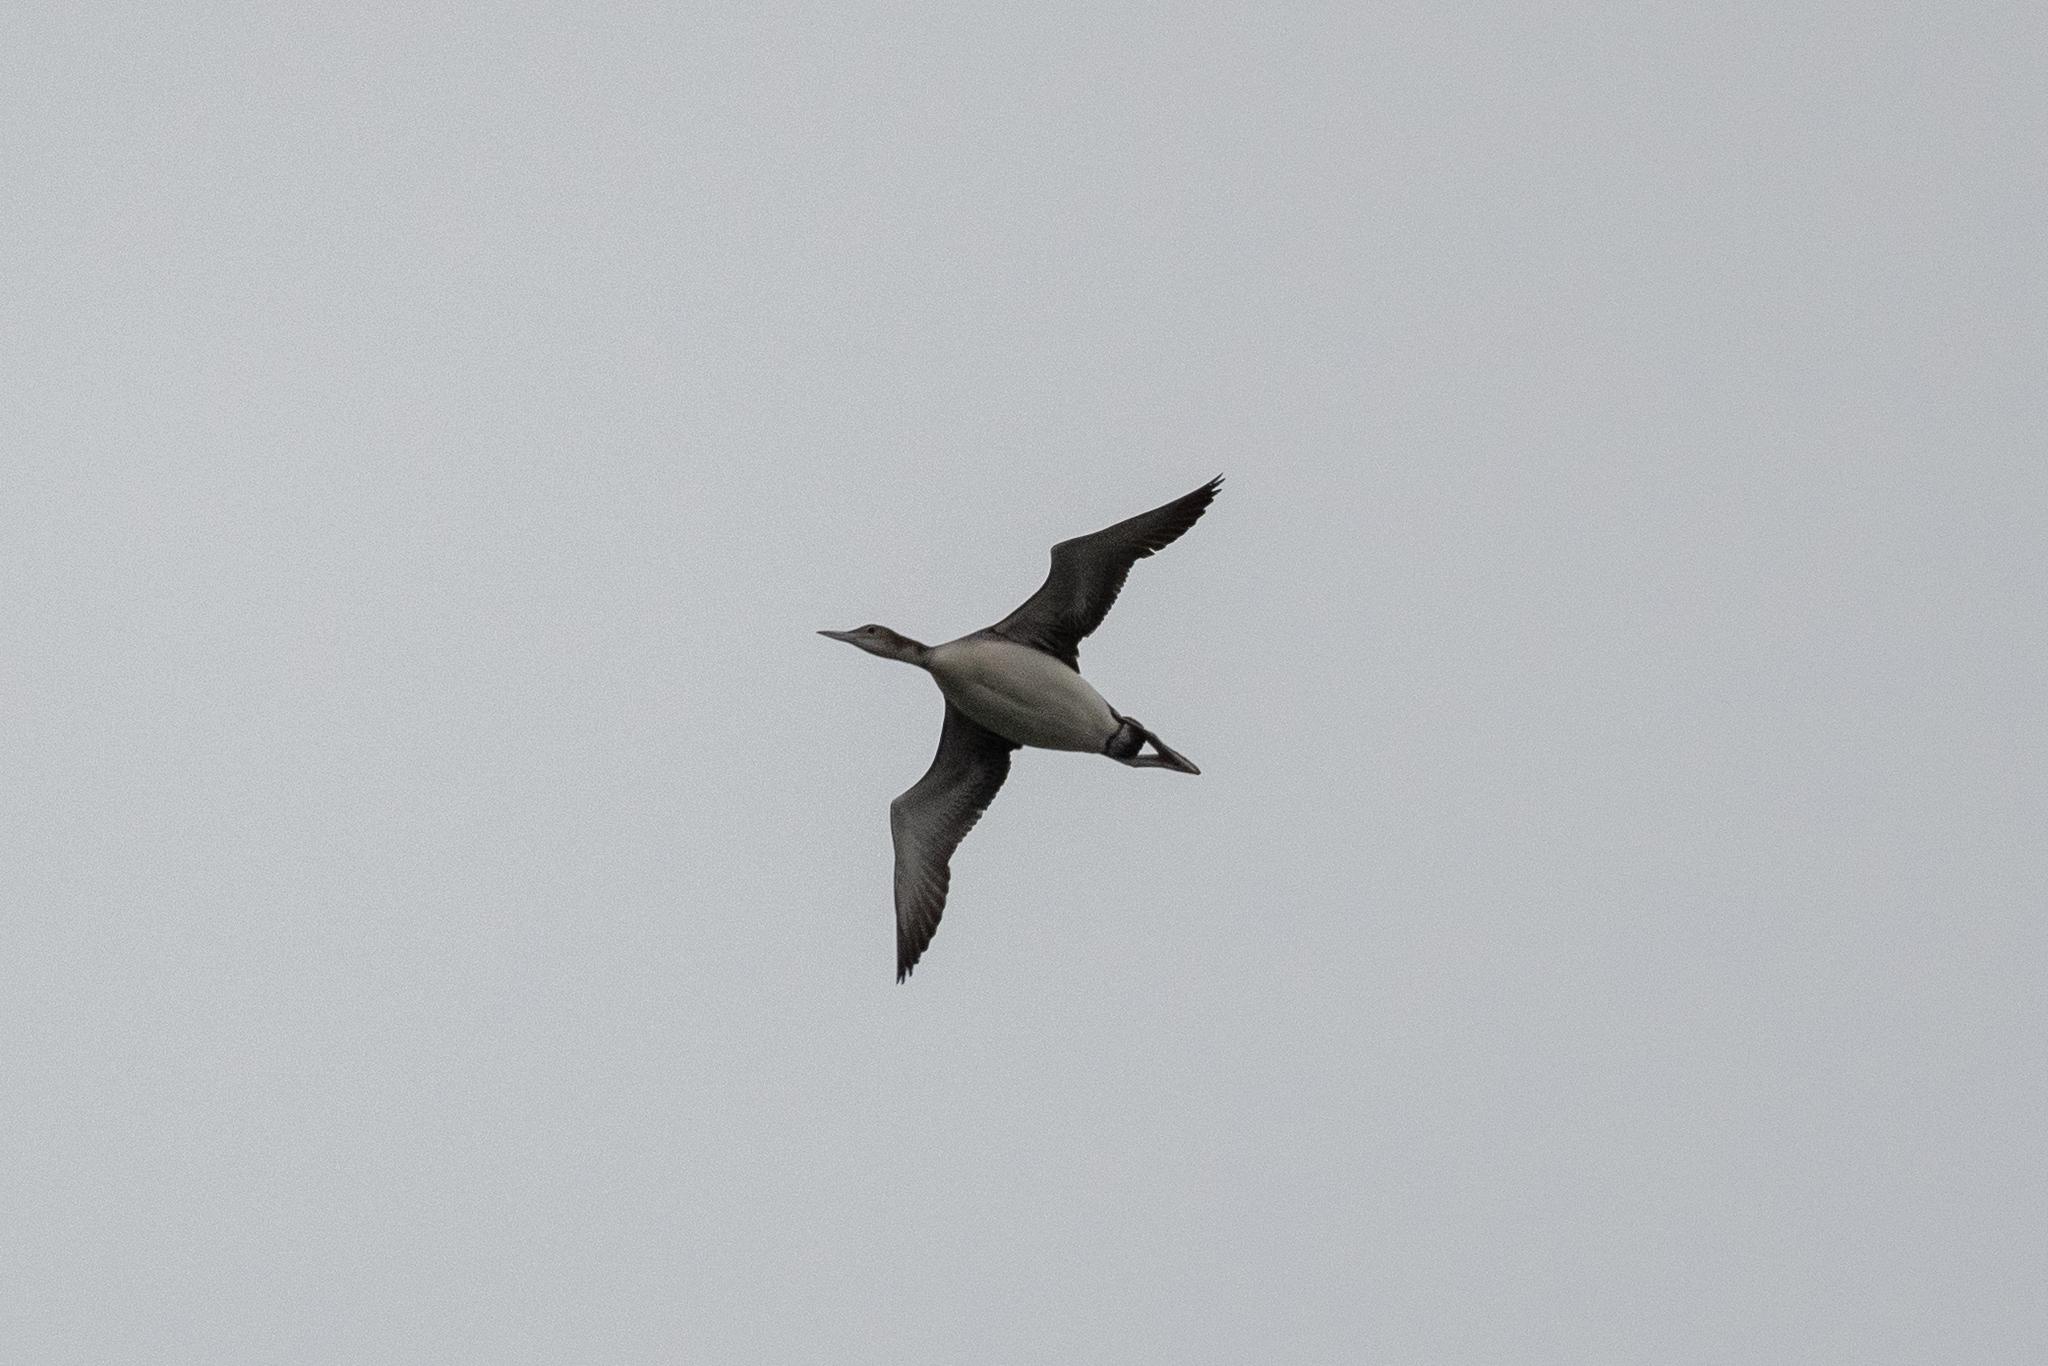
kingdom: Animalia
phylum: Chordata
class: Aves
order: Gaviiformes
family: Gaviidae
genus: Gavia
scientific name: Gavia immer
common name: Common loon
